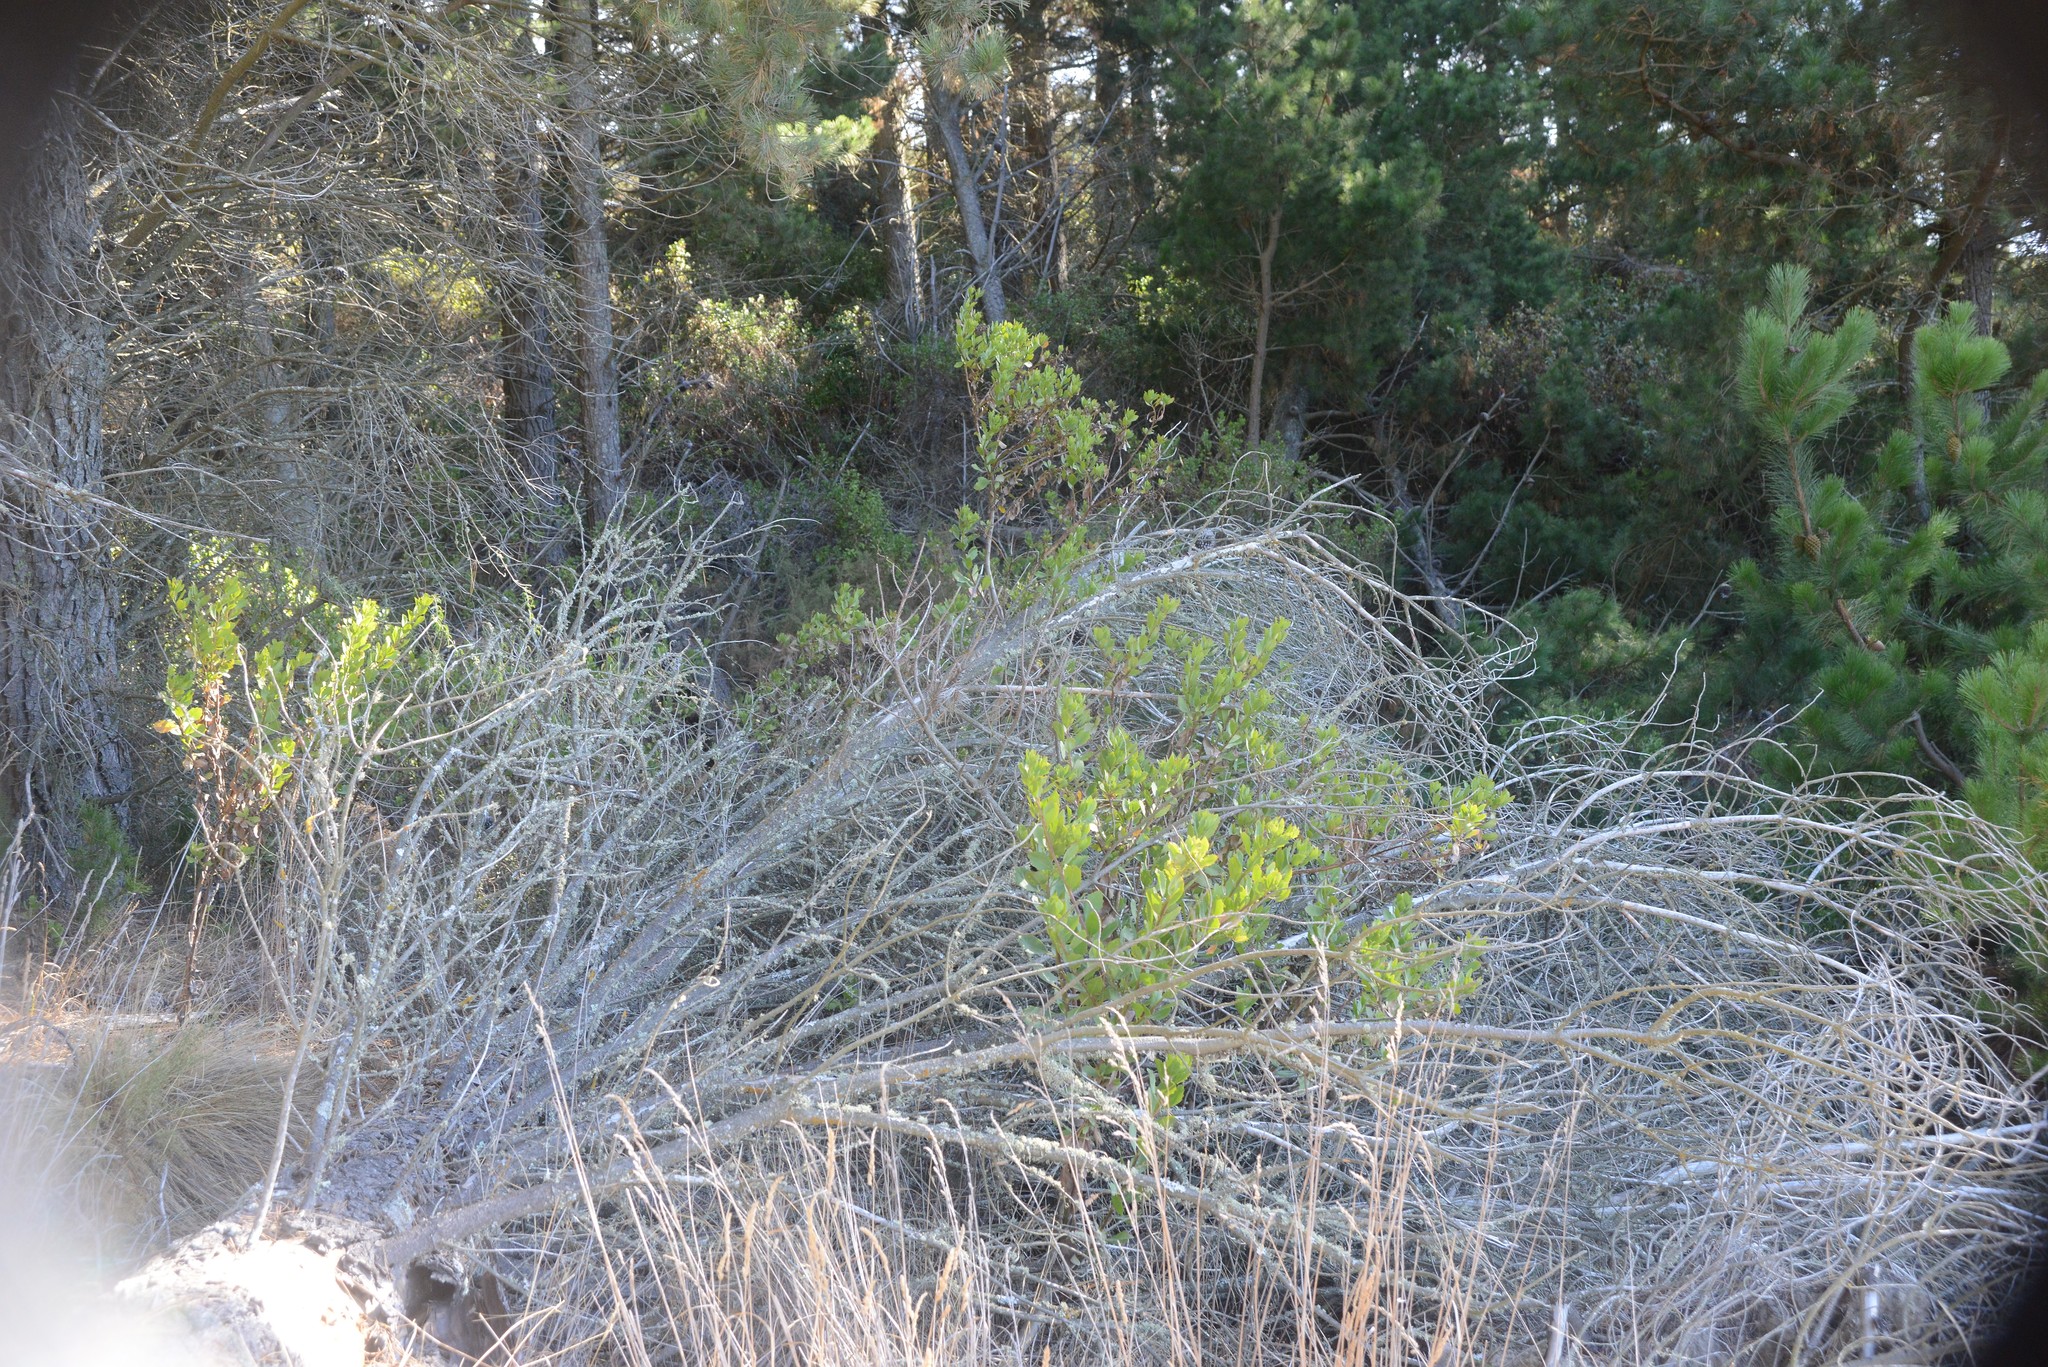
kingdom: Plantae
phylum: Tracheophyta
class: Magnoliopsida
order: Asterales
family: Asteraceae
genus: Osteospermum
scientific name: Osteospermum moniliferum
